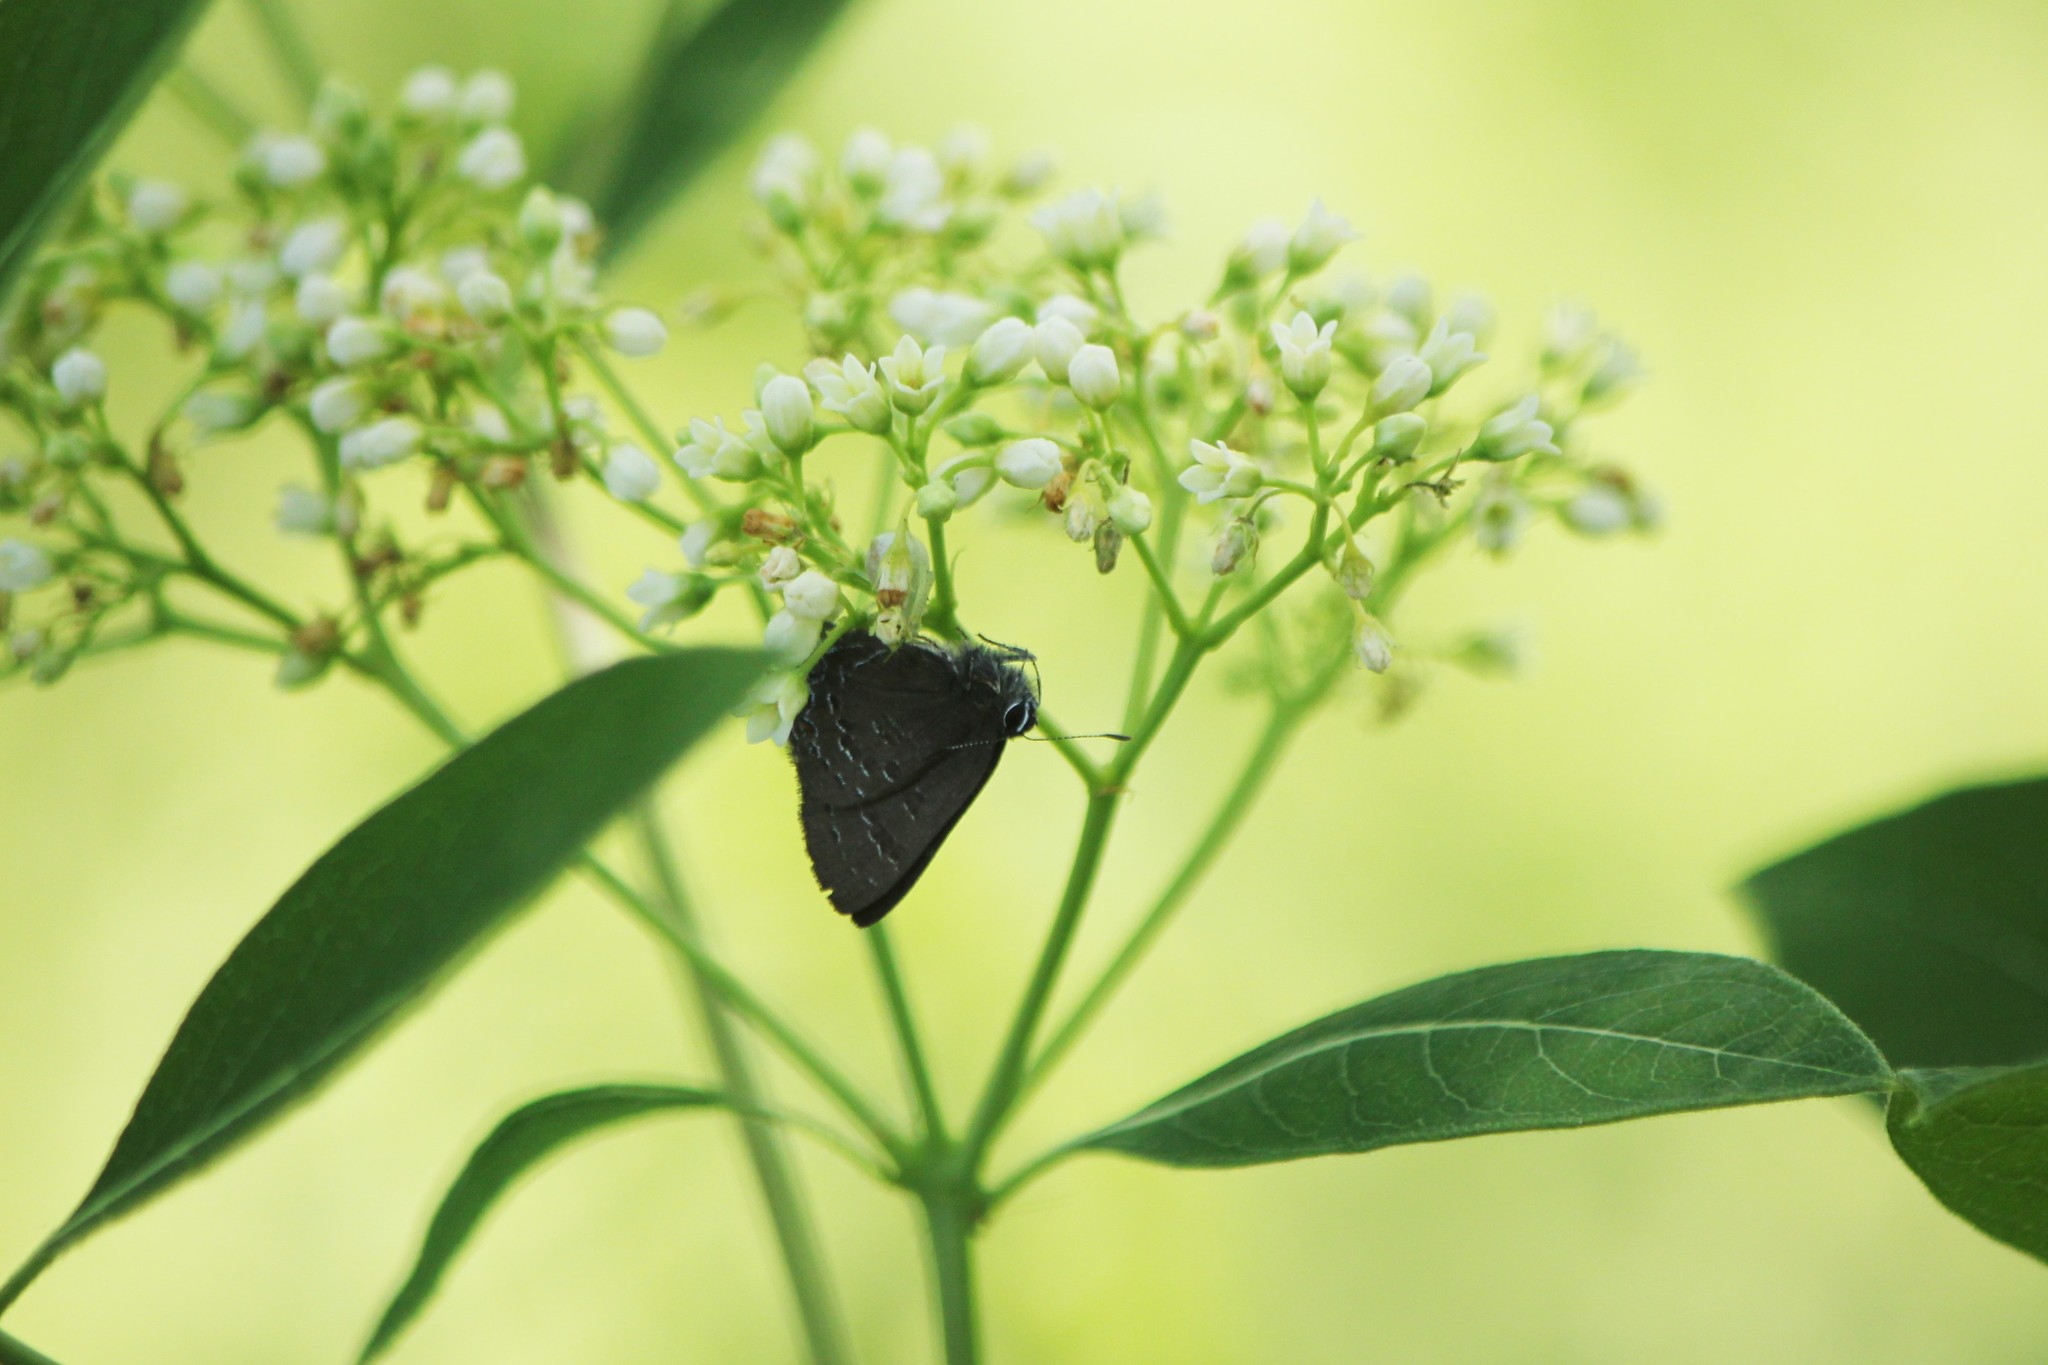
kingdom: Animalia
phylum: Arthropoda
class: Insecta
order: Lepidoptera
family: Lycaenidae
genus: Satyrium
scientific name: Satyrium calanus
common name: Banded hairstreak
